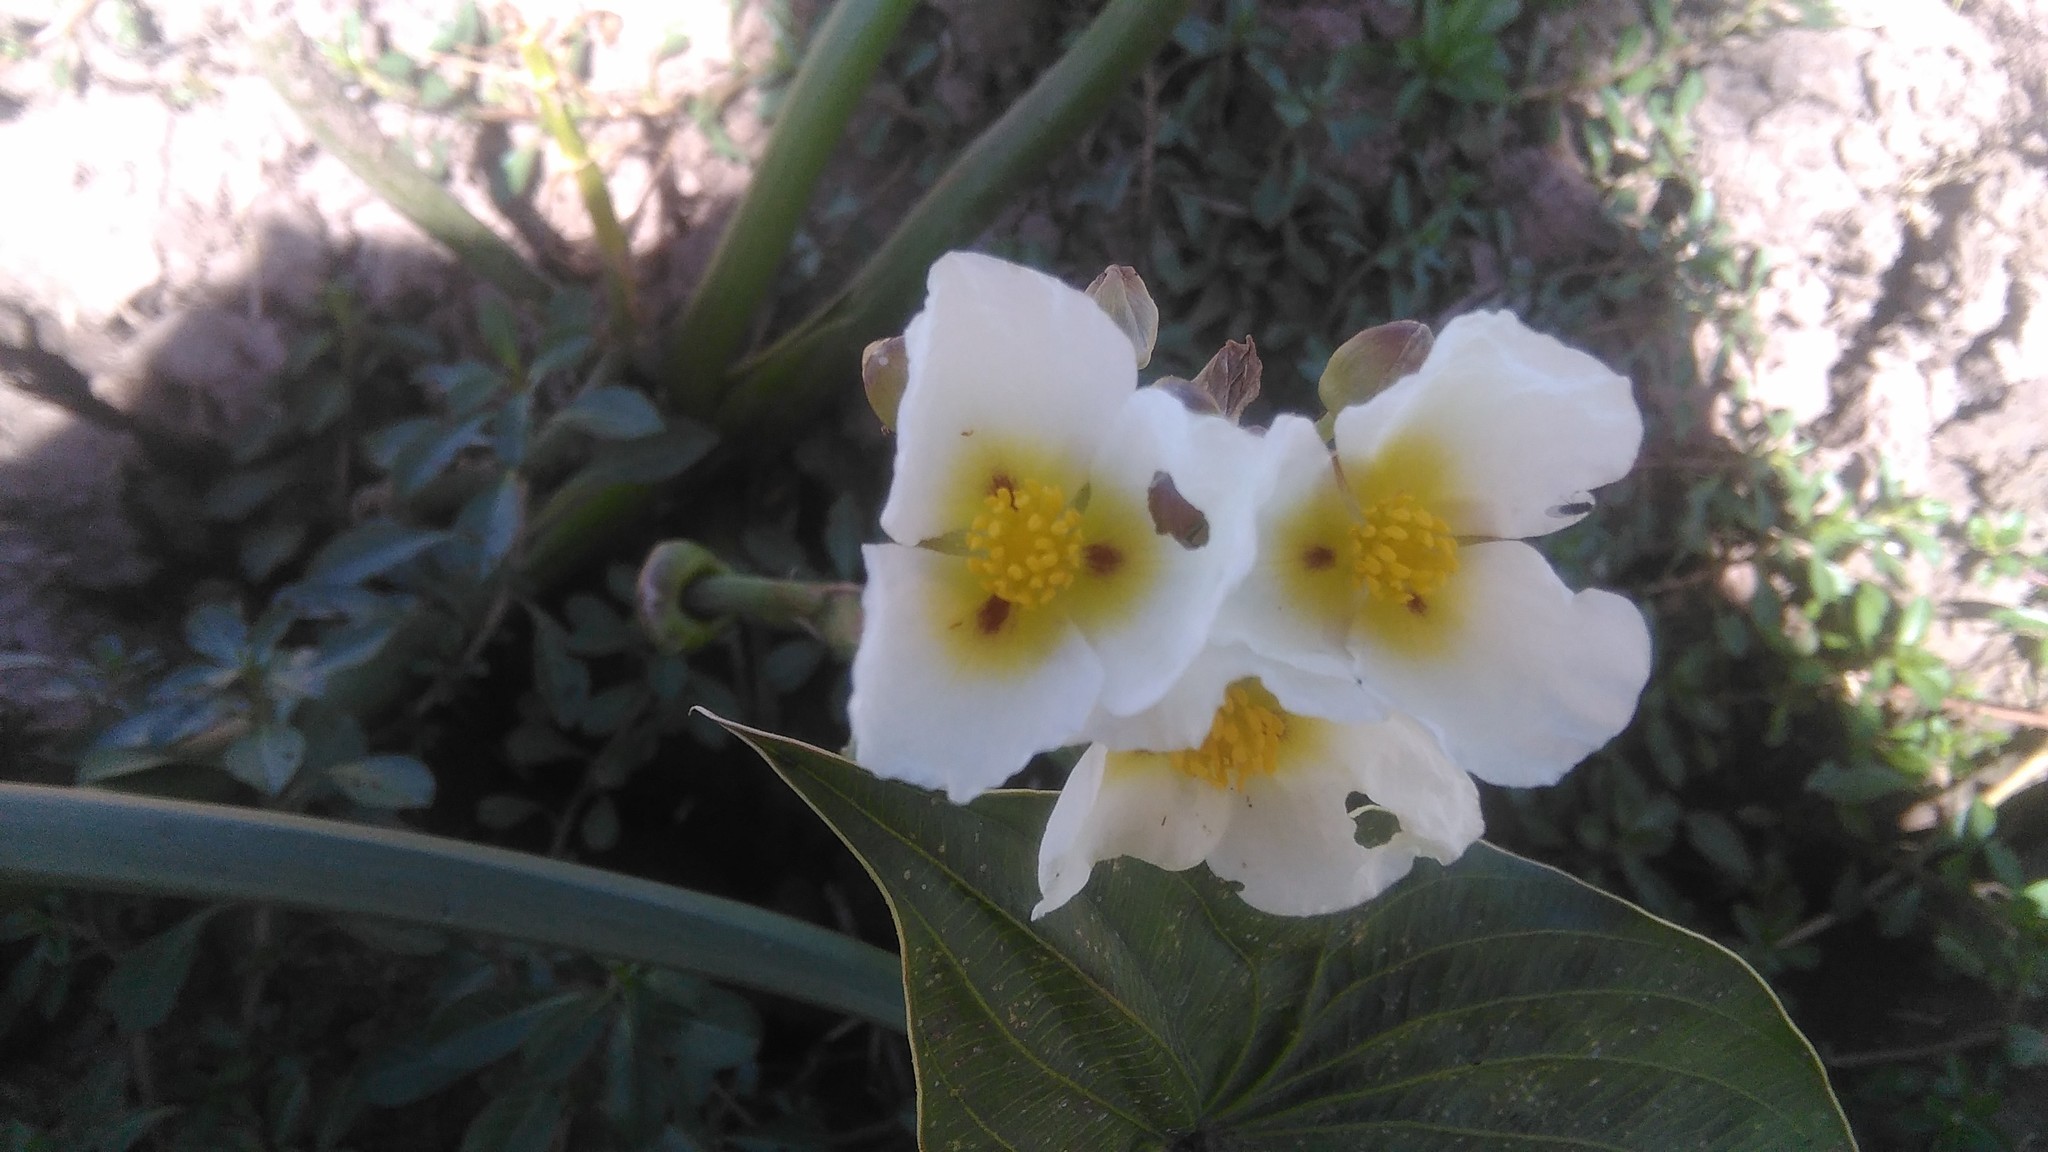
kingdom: Plantae
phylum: Tracheophyta
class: Liliopsida
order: Alismatales
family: Alismataceae
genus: Sagittaria
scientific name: Sagittaria montevidensis
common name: Giant arrowhead
